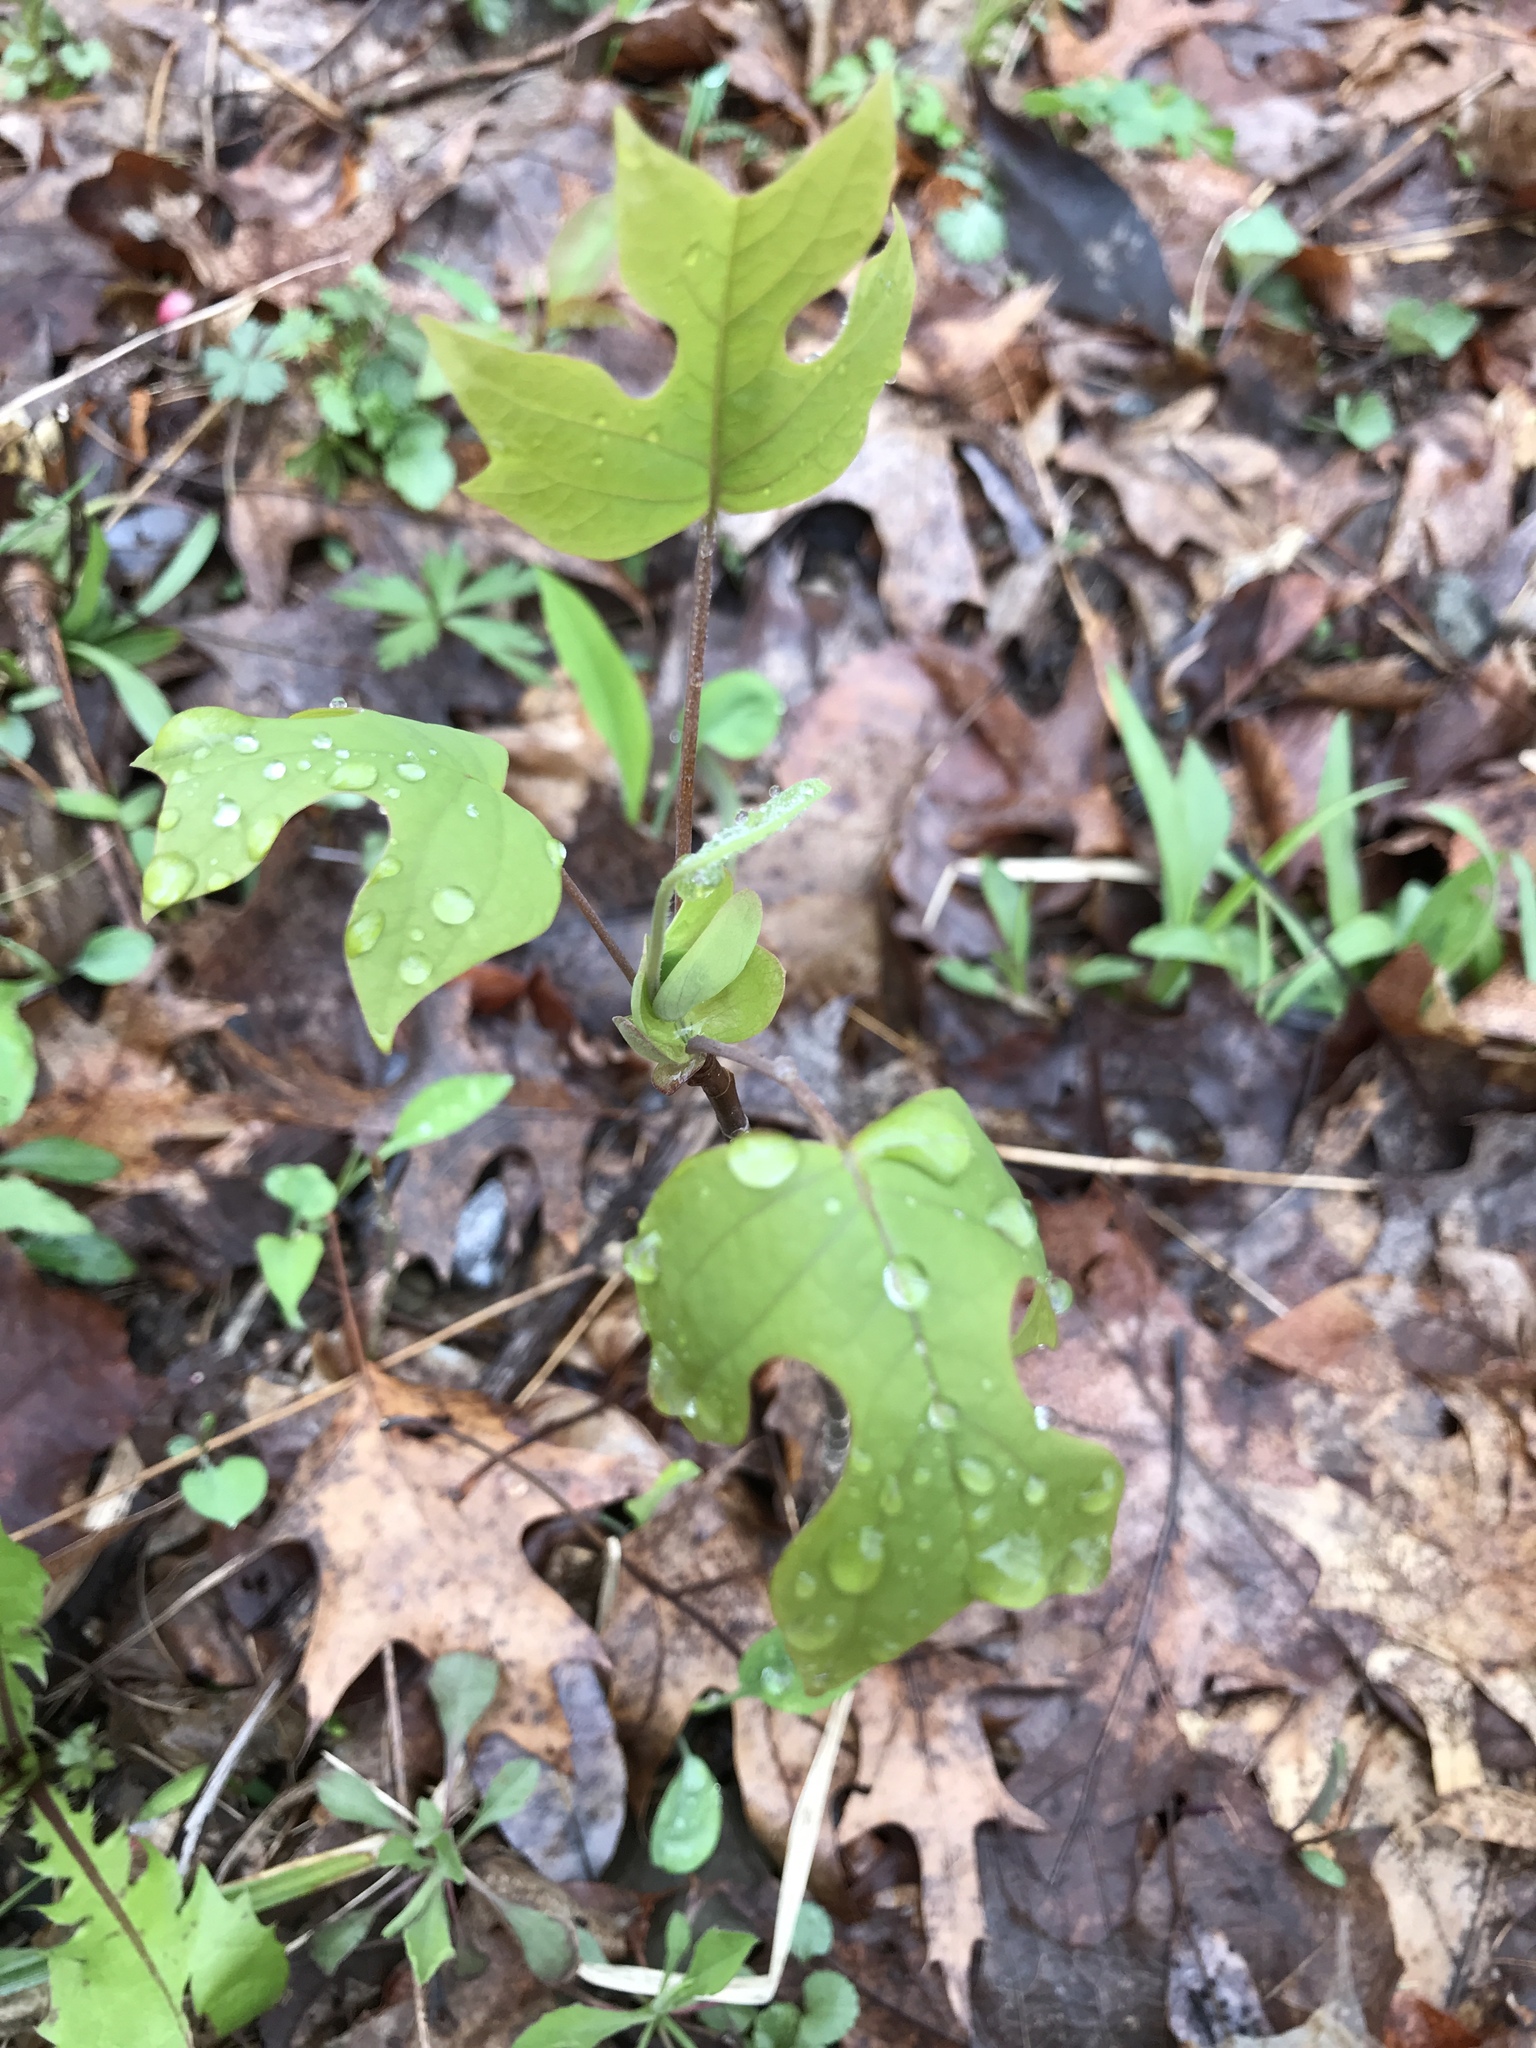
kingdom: Plantae
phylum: Tracheophyta
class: Magnoliopsida
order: Magnoliales
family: Magnoliaceae
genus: Liriodendron
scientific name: Liriodendron tulipifera
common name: Tulip tree
